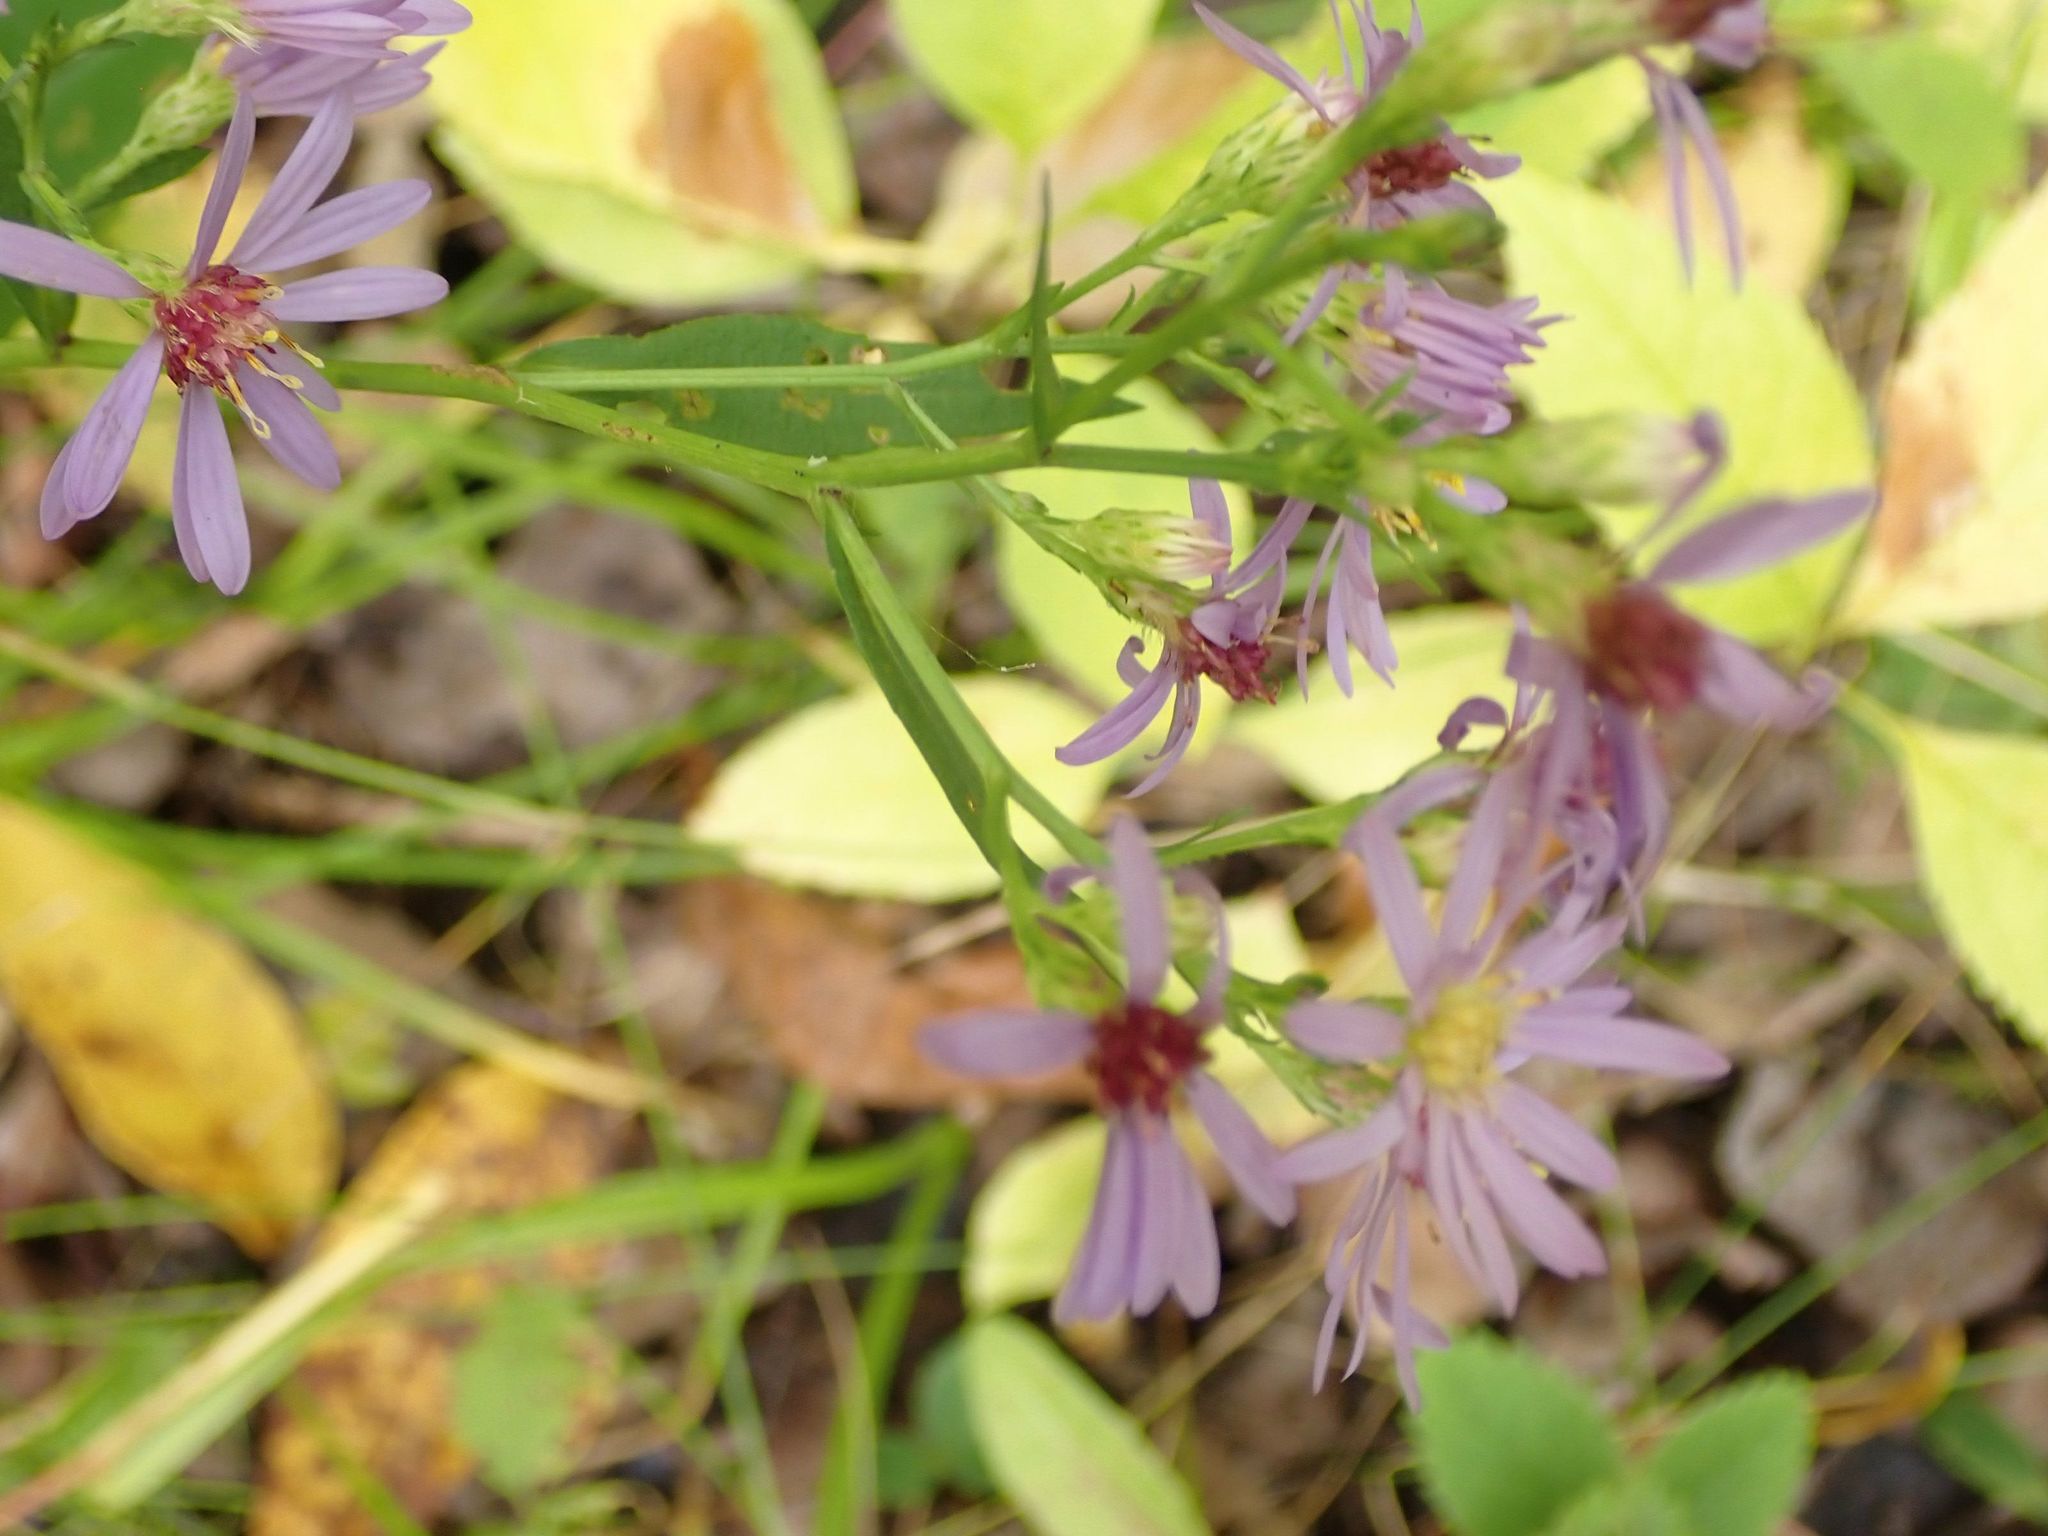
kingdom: Plantae
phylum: Tracheophyta
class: Magnoliopsida
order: Asterales
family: Asteraceae
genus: Symphyotrichum
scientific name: Symphyotrichum ciliolatum
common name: Fringed blue aster
